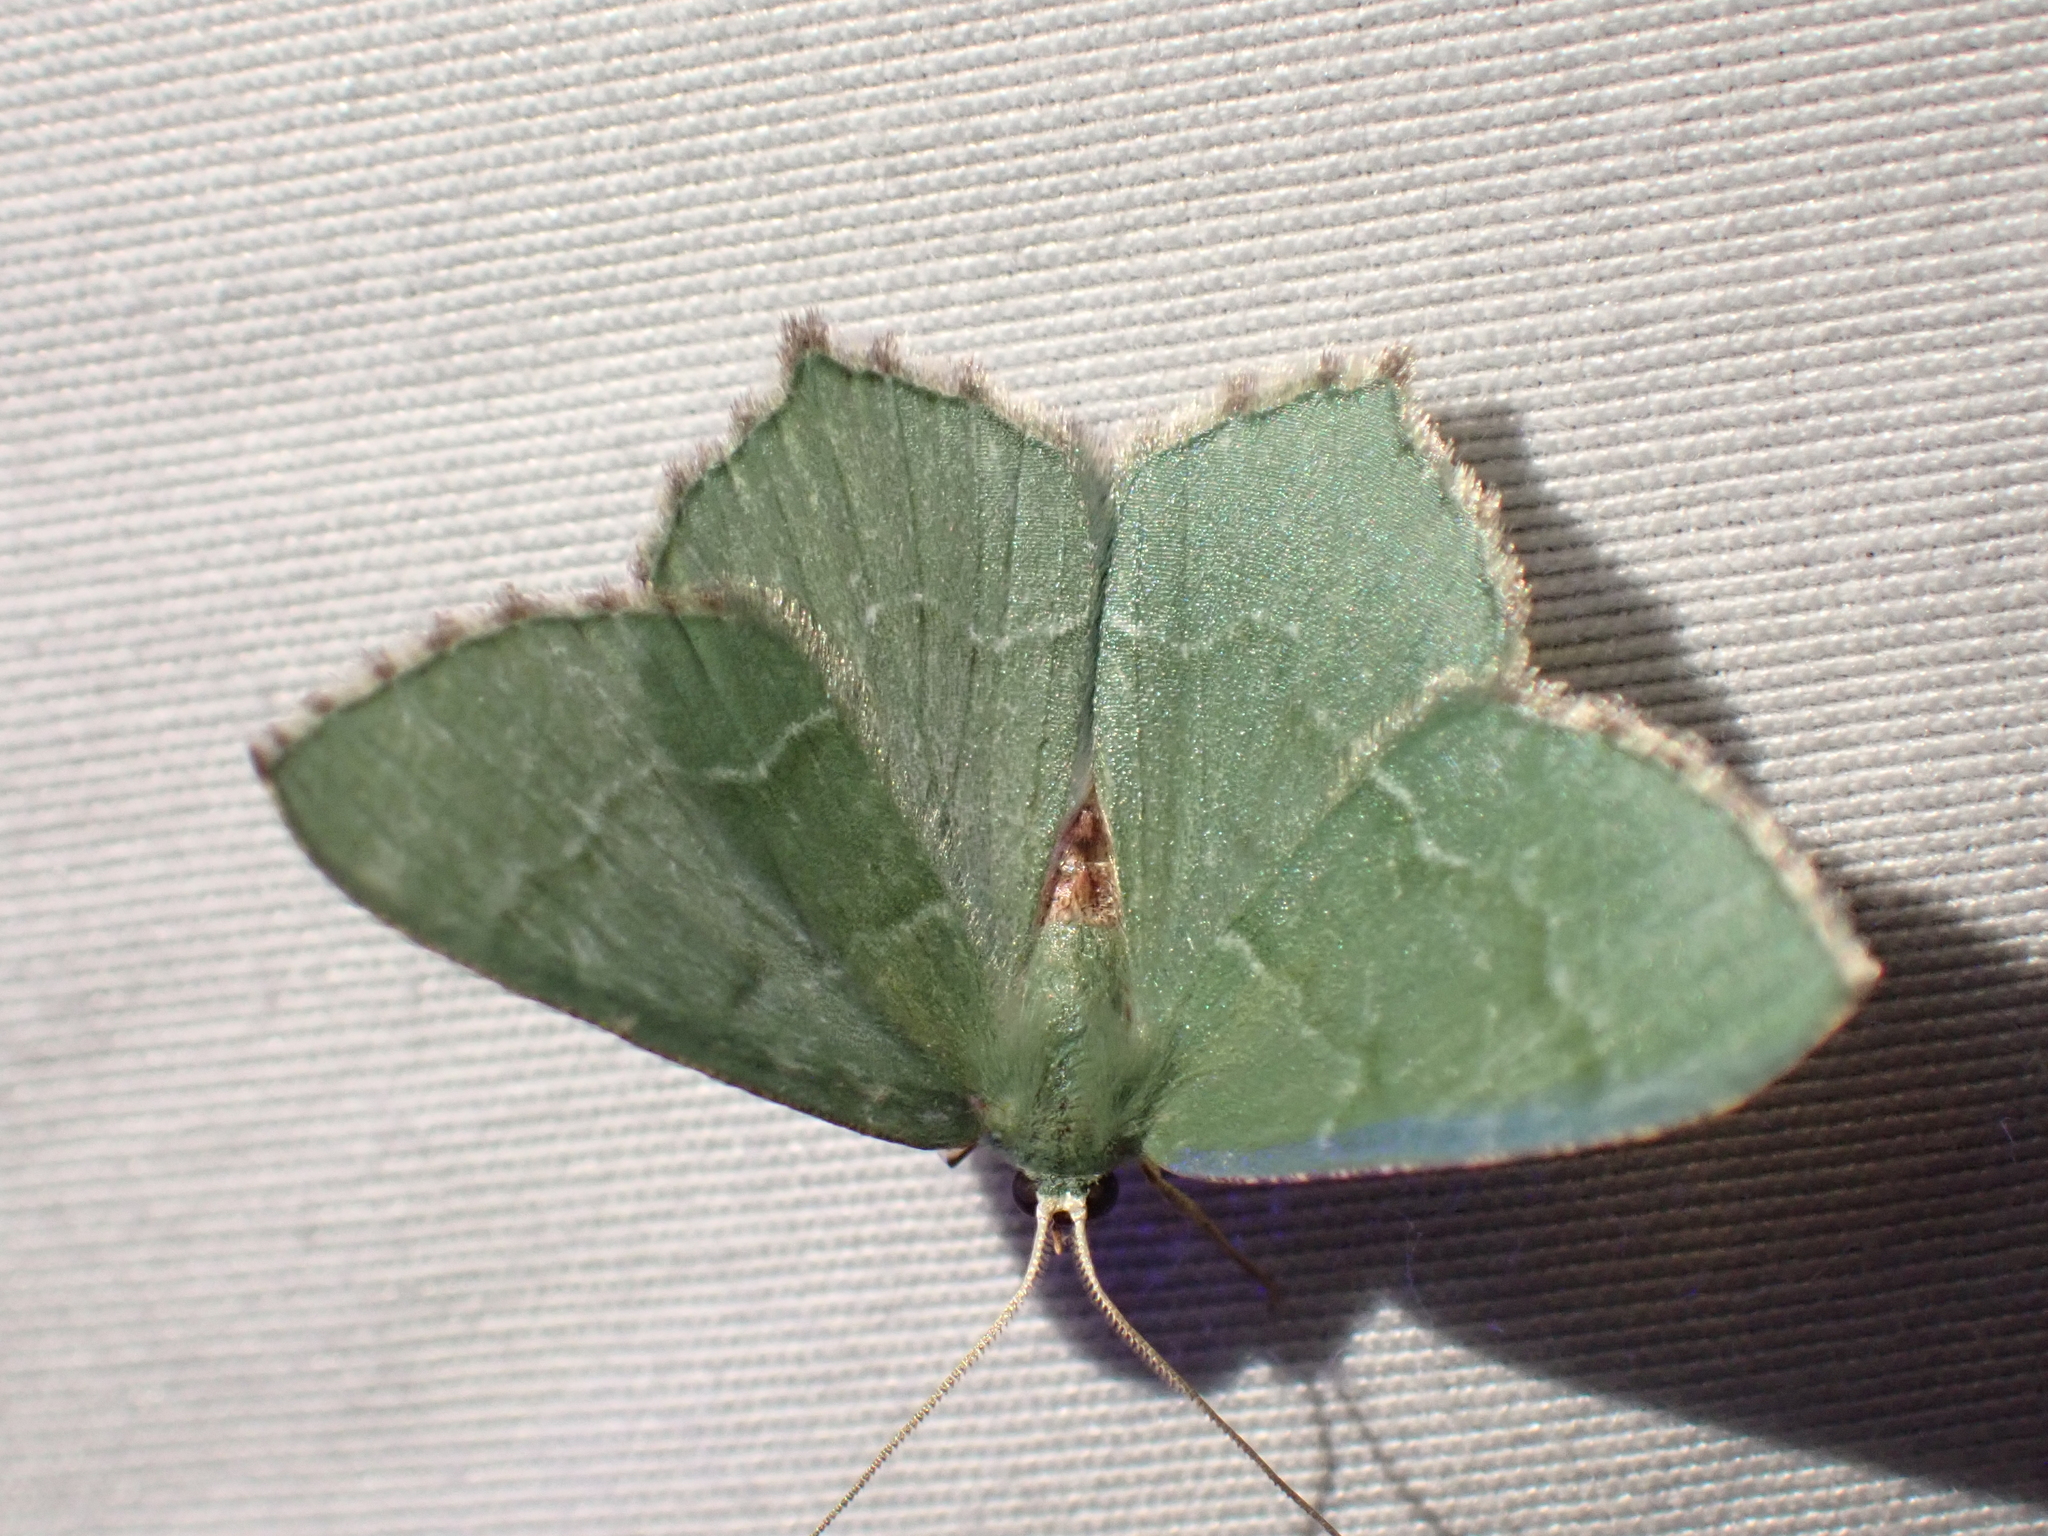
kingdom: Animalia
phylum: Arthropoda
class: Insecta
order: Lepidoptera
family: Geometridae
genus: Hemithea
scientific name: Hemithea aestivaria
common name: Common emerald
